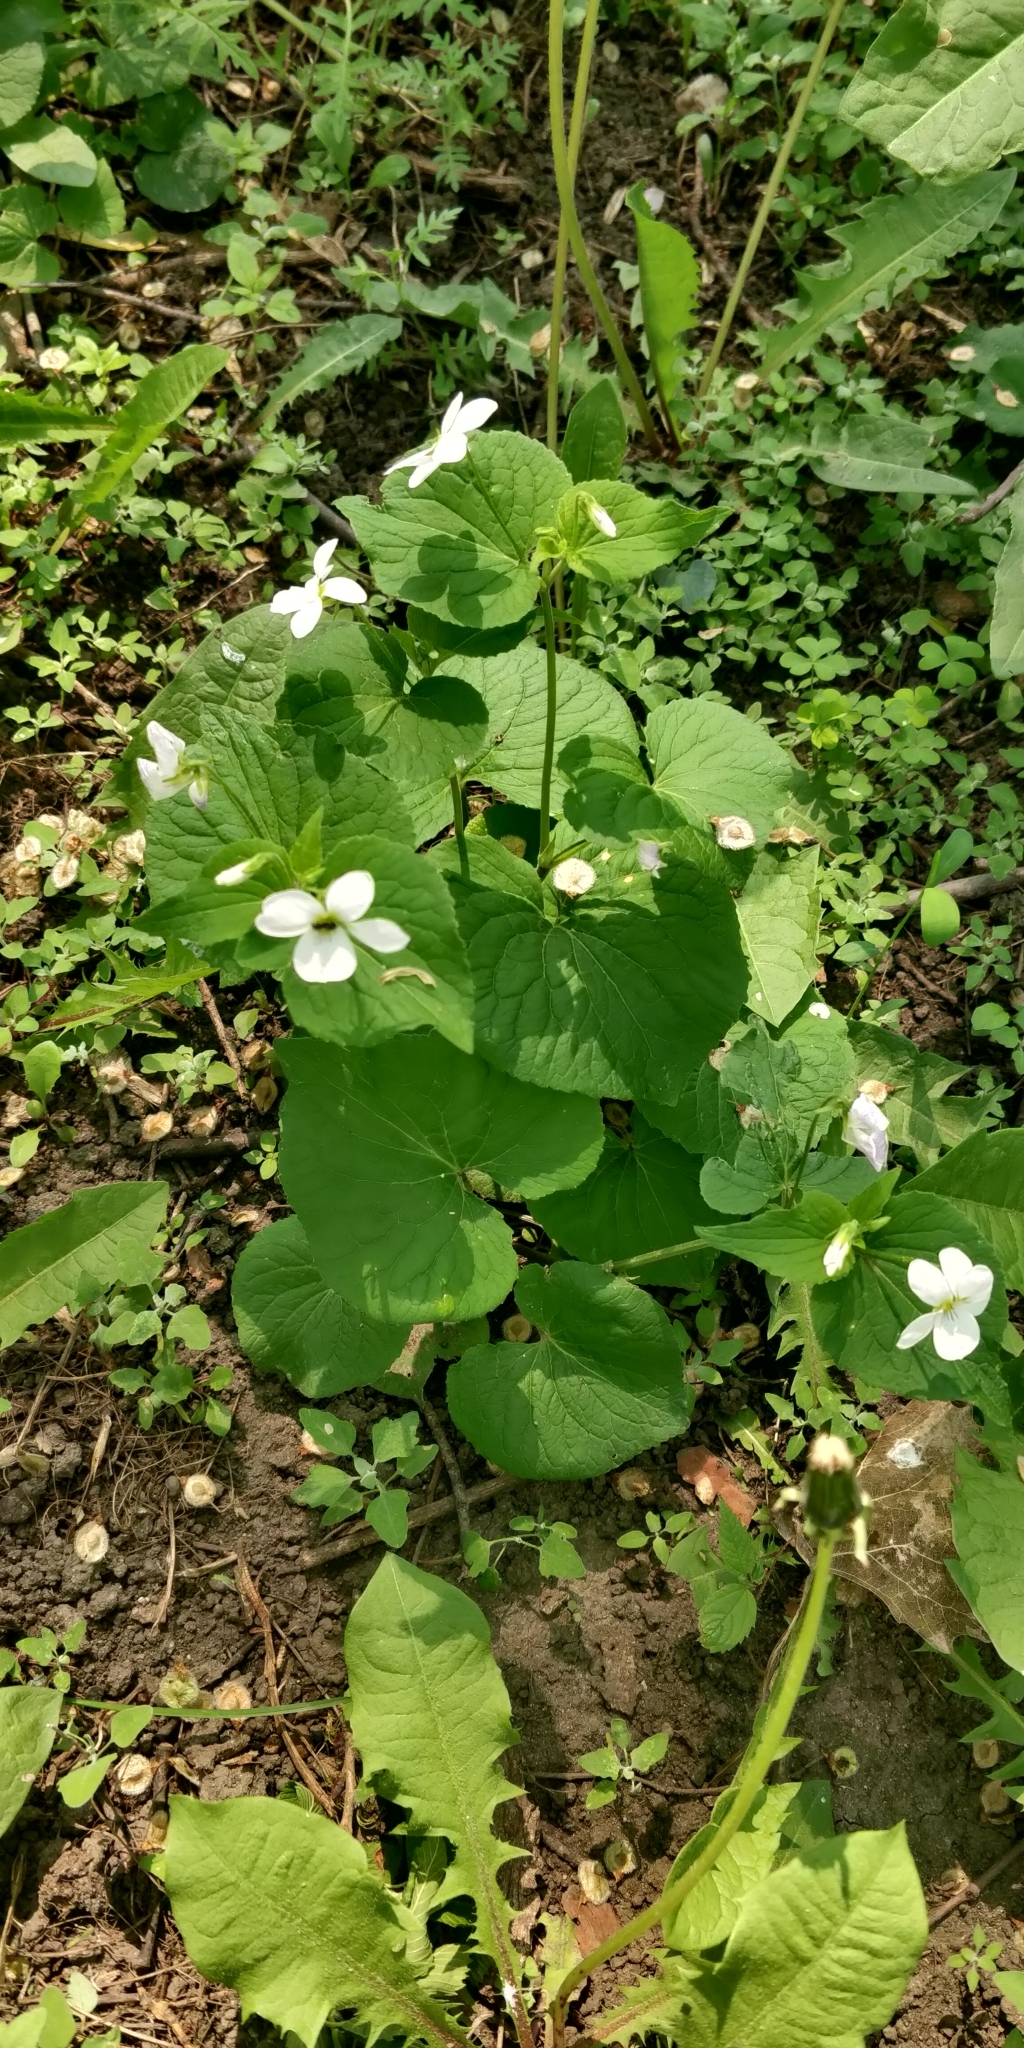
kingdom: Plantae
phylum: Tracheophyta
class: Magnoliopsida
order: Malpighiales
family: Violaceae
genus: Viola
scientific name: Viola canadensis
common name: Canada violet
